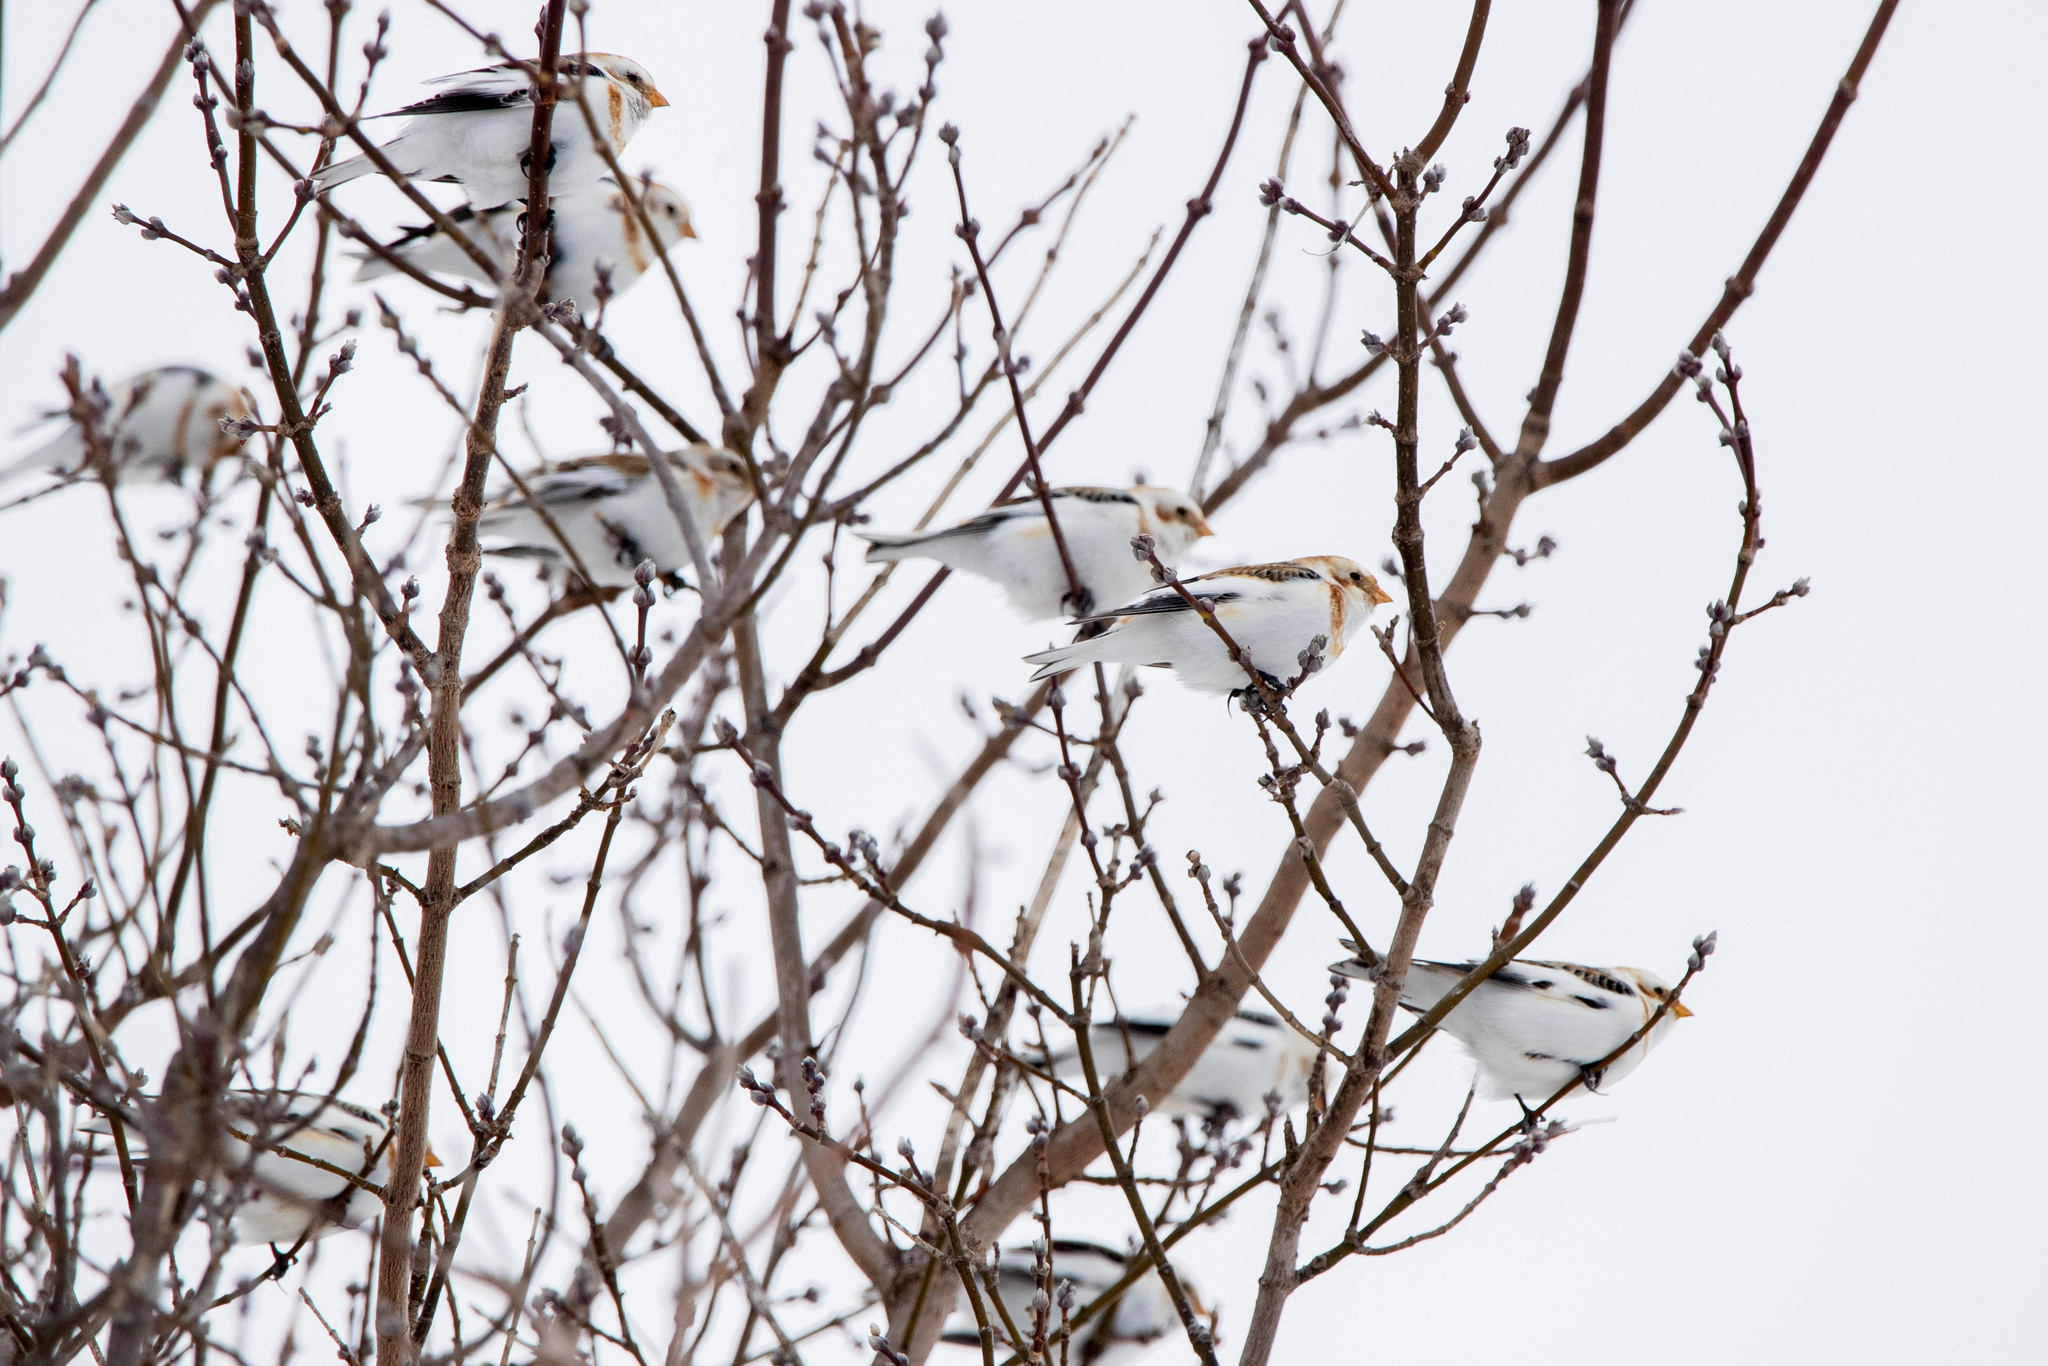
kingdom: Animalia
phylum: Chordata
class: Aves
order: Passeriformes
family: Calcariidae
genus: Plectrophenax
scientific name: Plectrophenax nivalis
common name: Snow bunting
